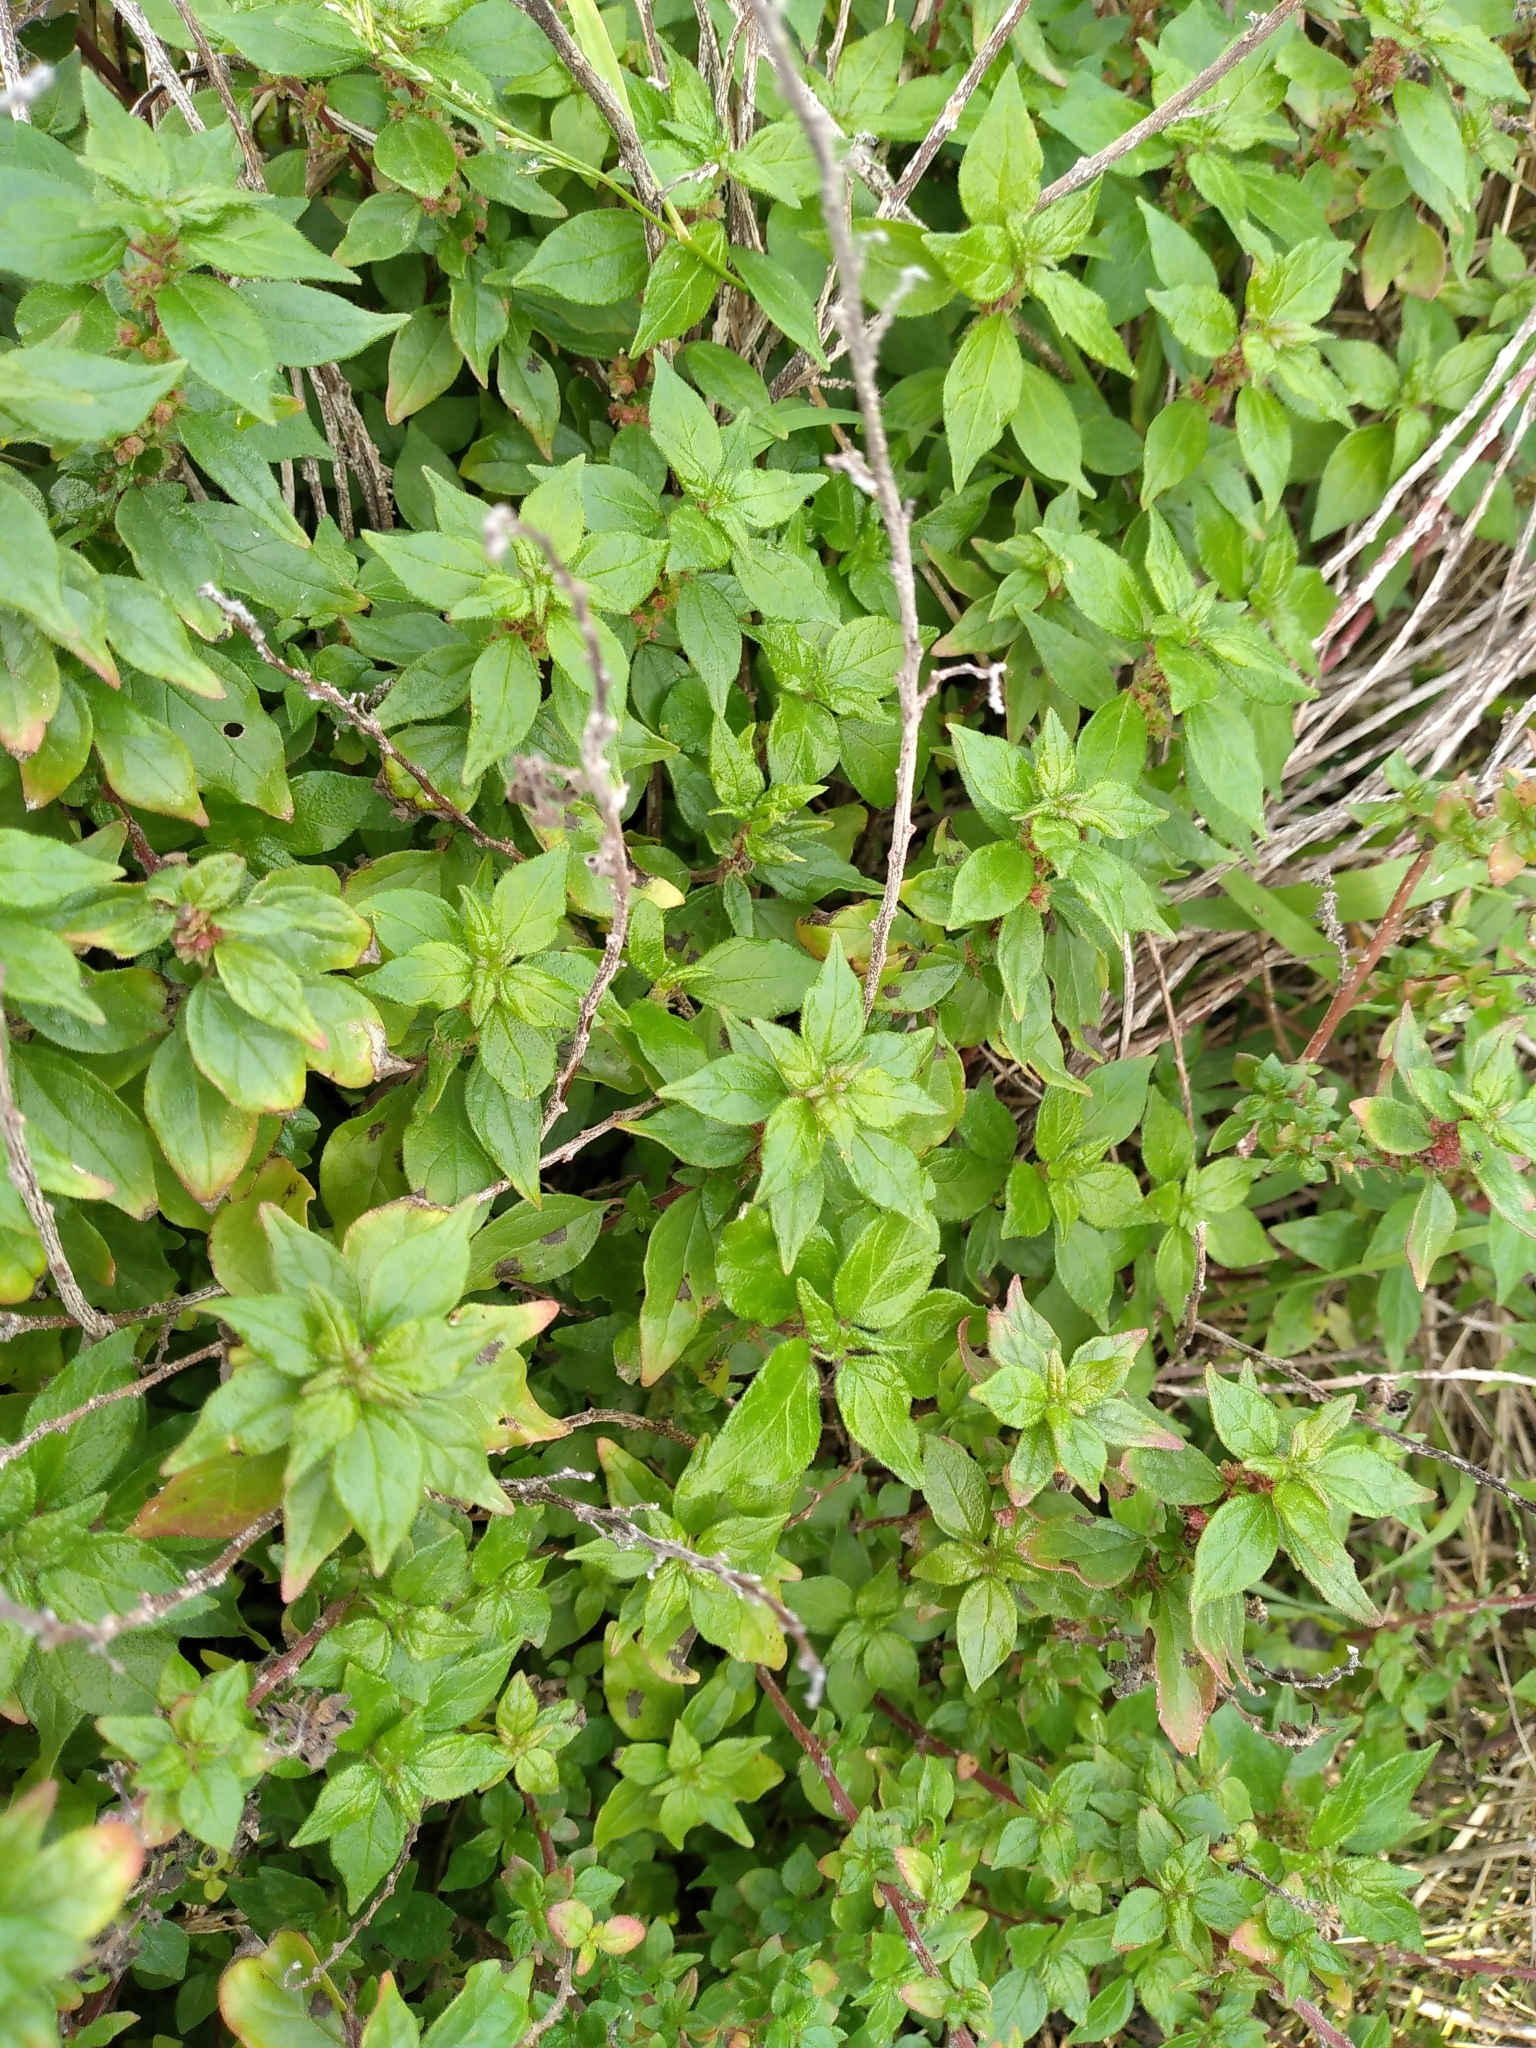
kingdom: Plantae
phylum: Tracheophyta
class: Magnoliopsida
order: Rosales
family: Urticaceae
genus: Parietaria
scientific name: Parietaria judaica
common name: Pellitory-of-the-wall
